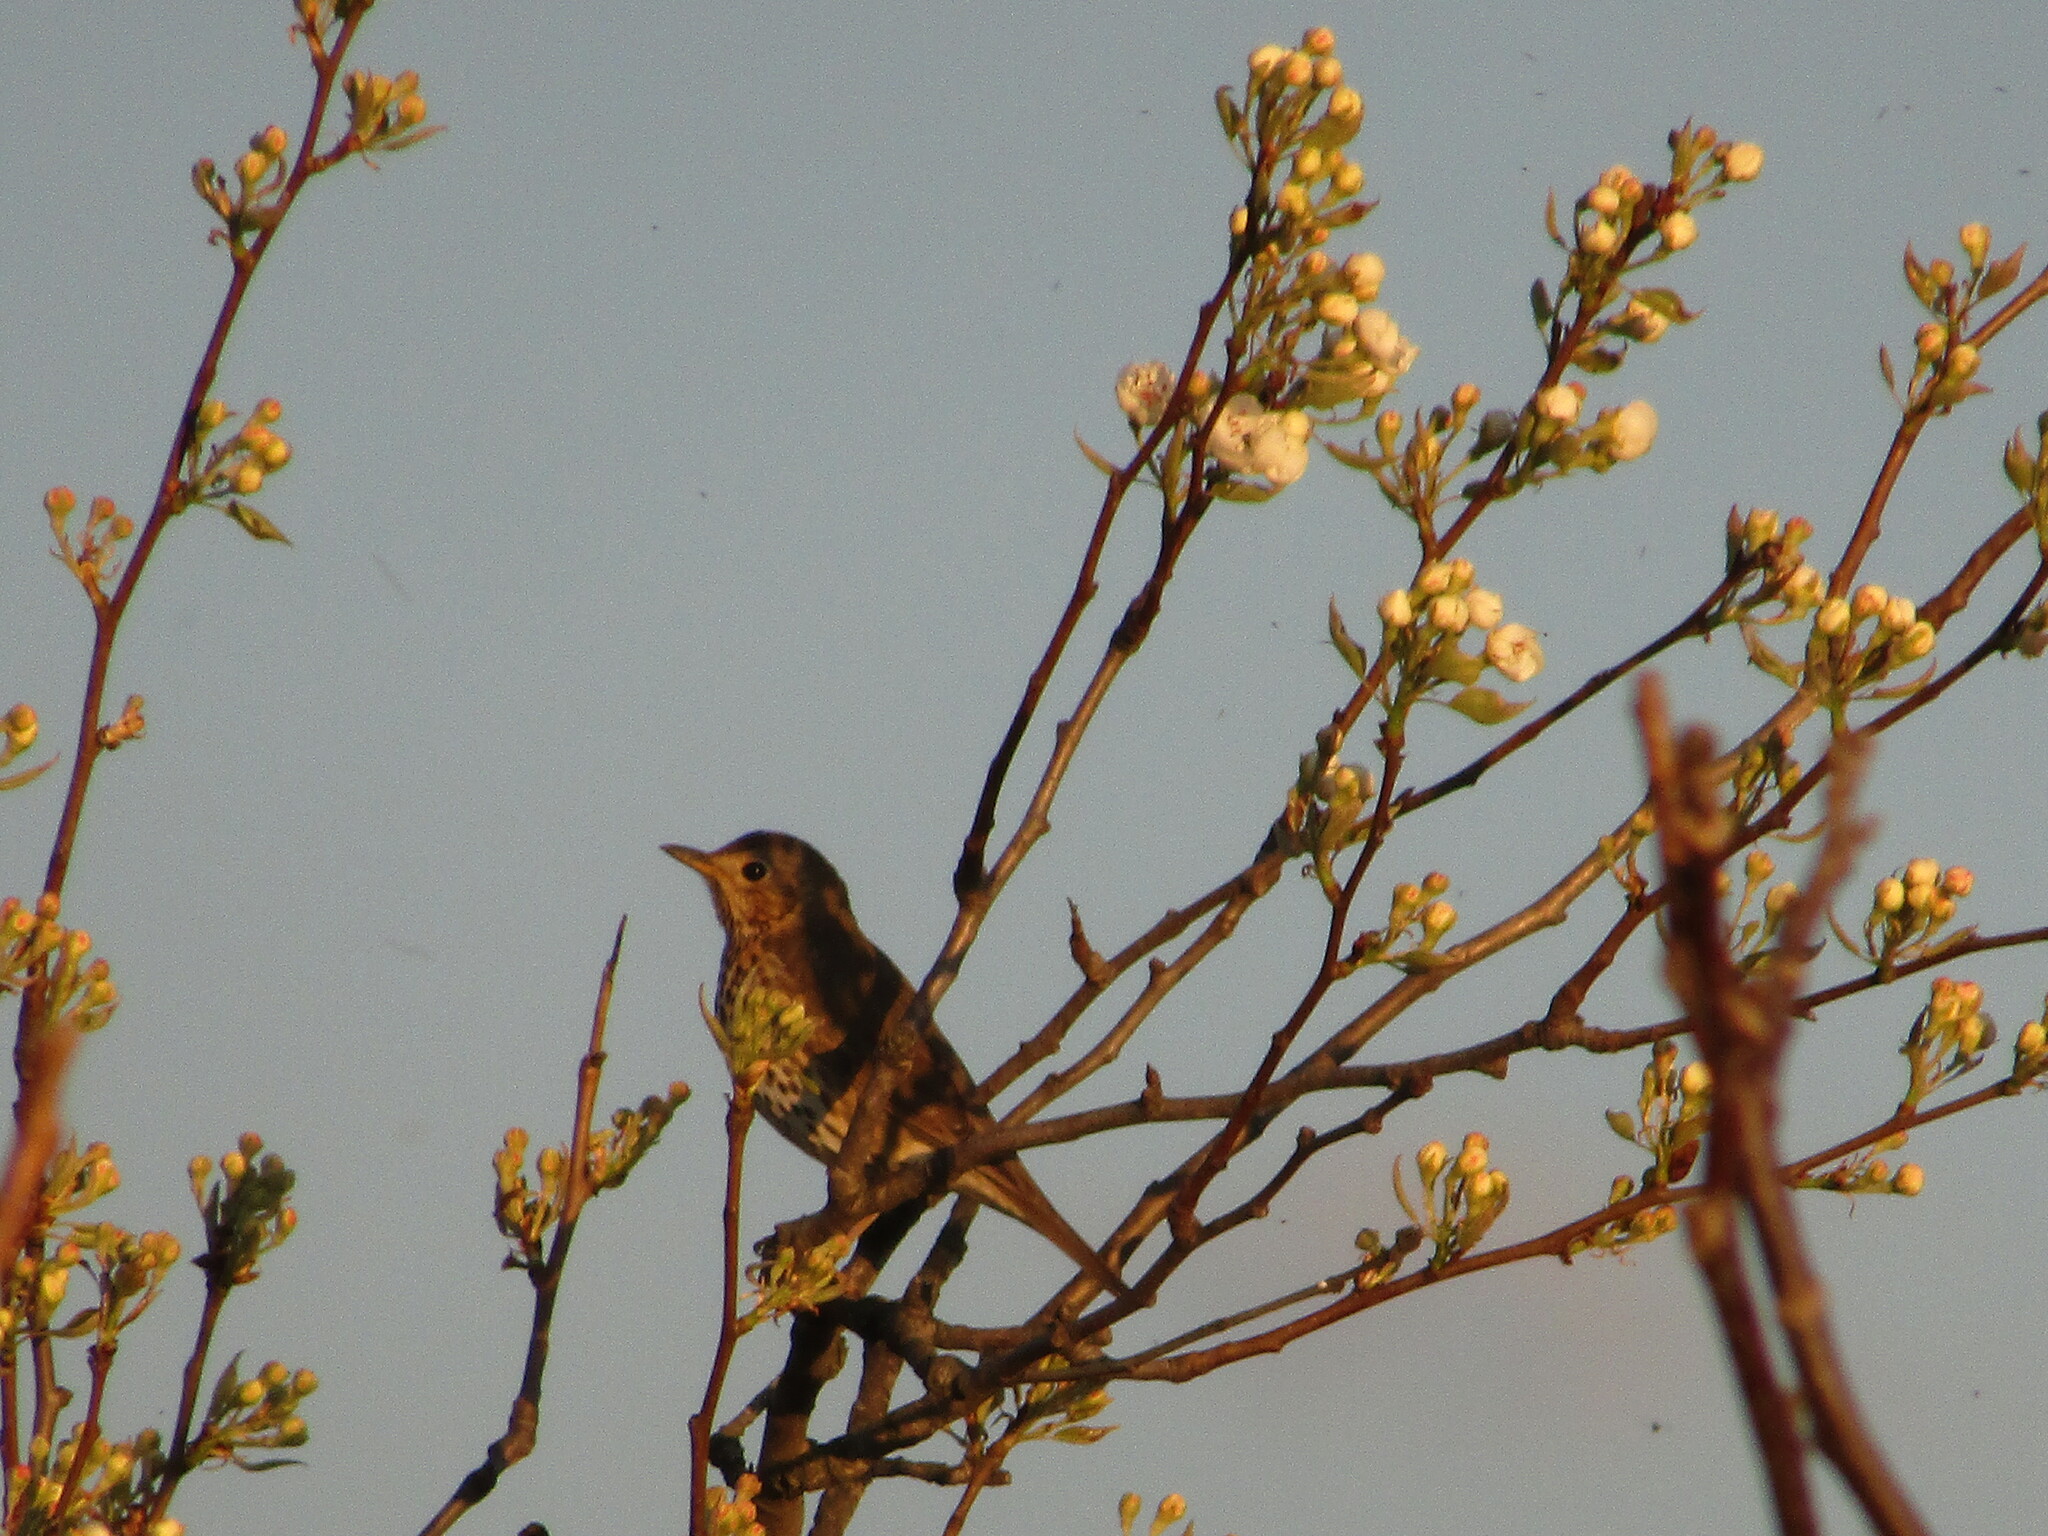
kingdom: Animalia
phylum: Chordata
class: Aves
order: Passeriformes
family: Turdidae
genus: Turdus
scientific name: Turdus philomelos
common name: Song thrush
